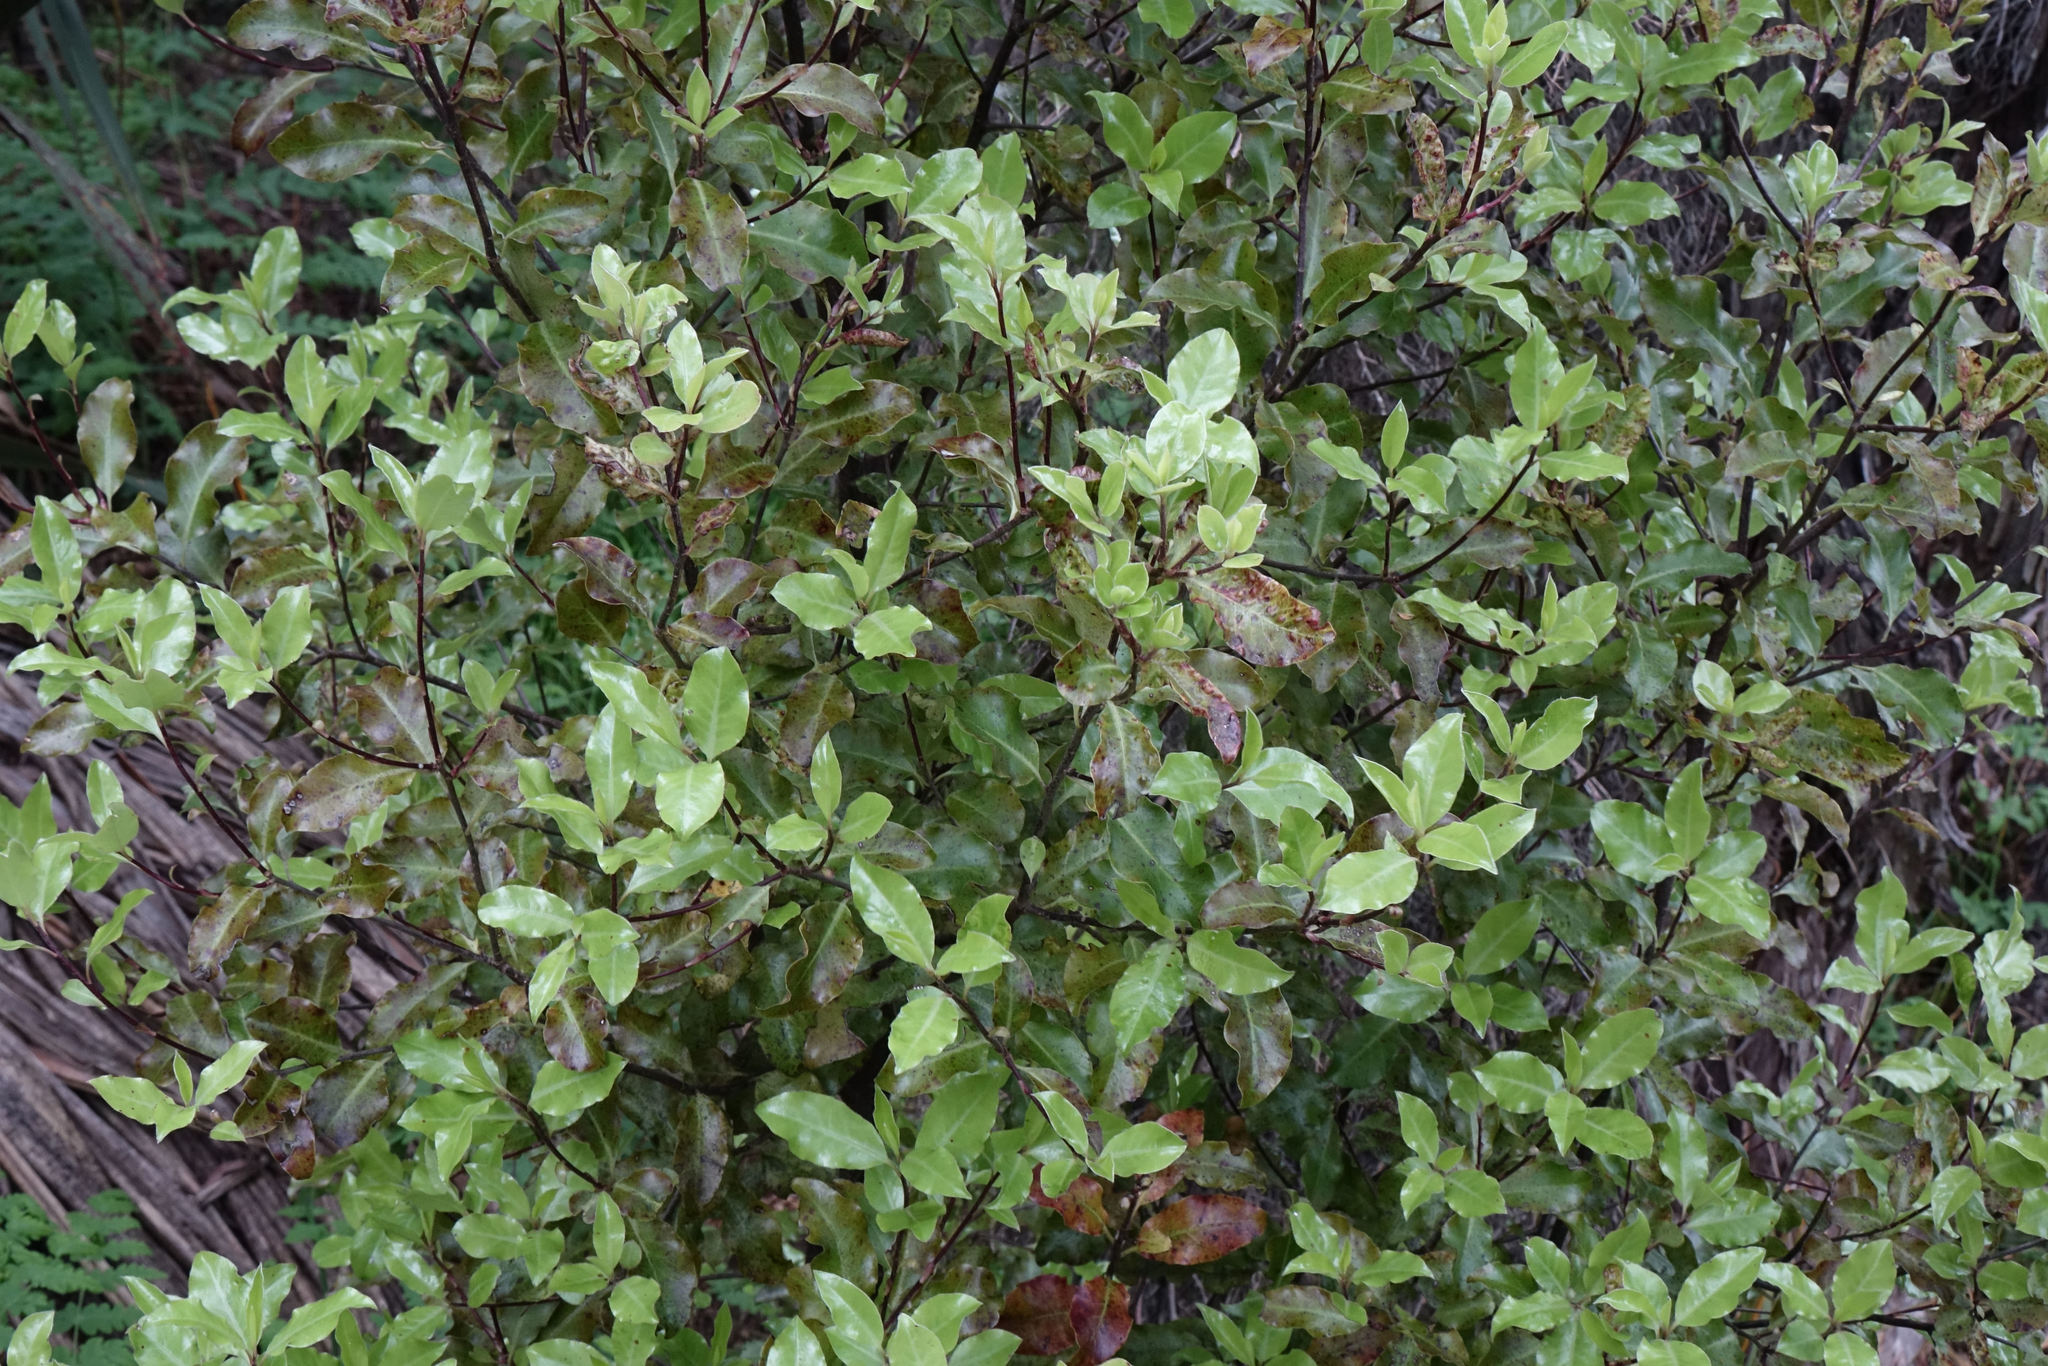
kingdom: Plantae
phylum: Tracheophyta
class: Magnoliopsida
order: Apiales
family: Pittosporaceae
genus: Pittosporum
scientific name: Pittosporum tenuifolium
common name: Kohuhu
